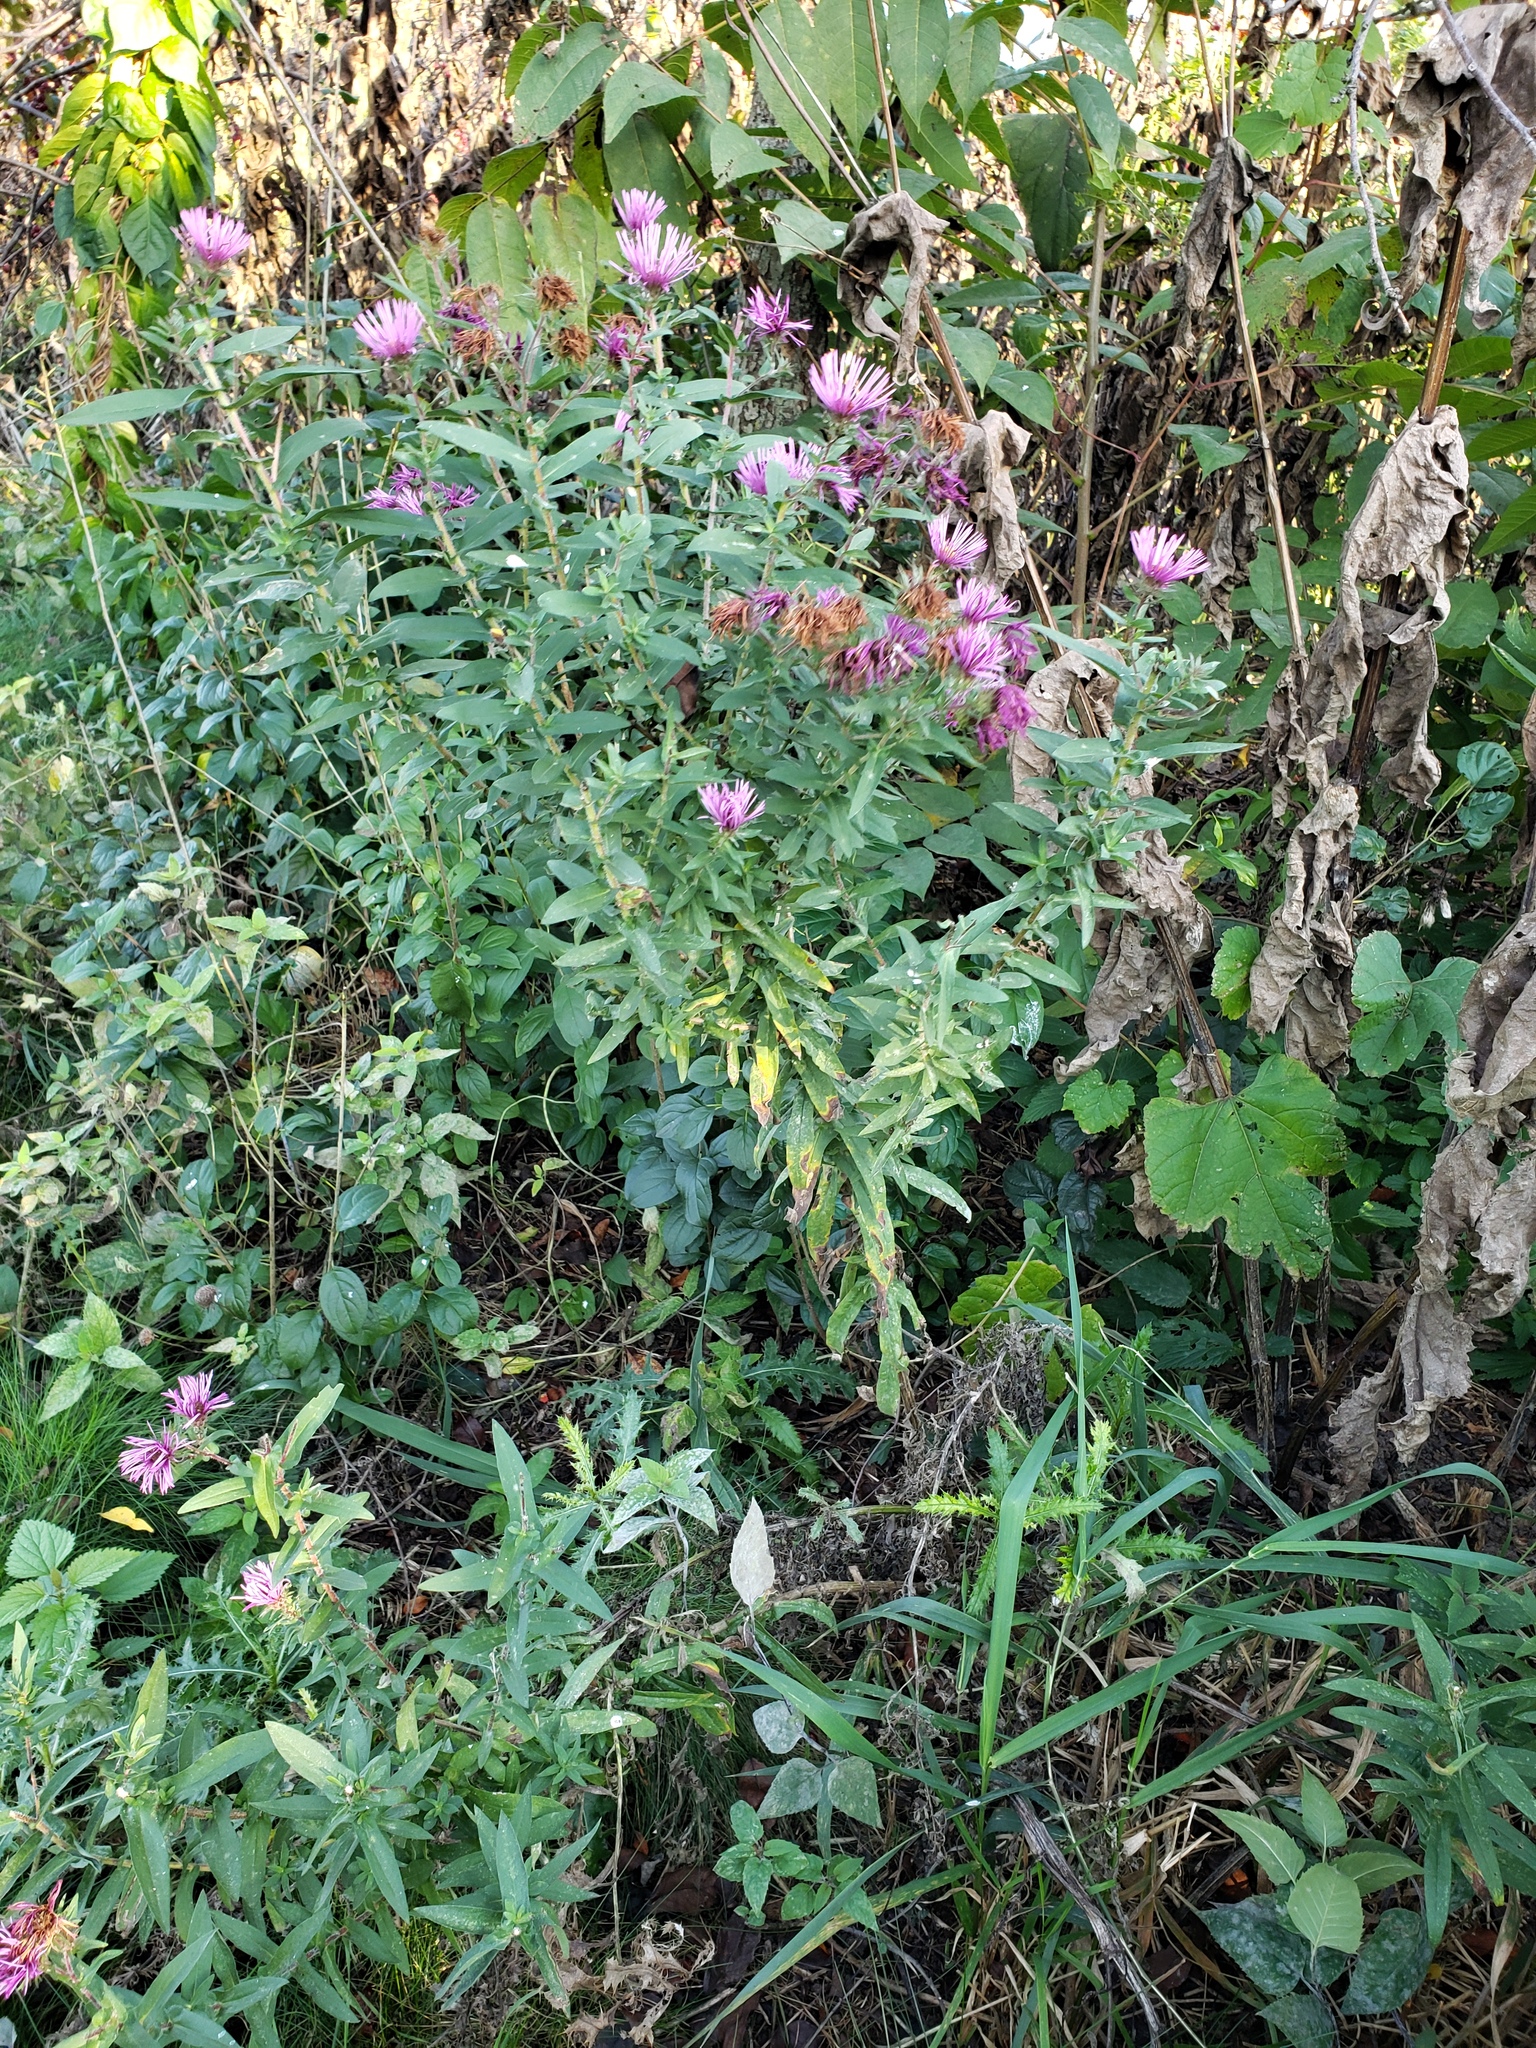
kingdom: Plantae
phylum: Tracheophyta
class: Magnoliopsida
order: Asterales
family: Asteraceae
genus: Symphyotrichum
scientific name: Symphyotrichum novae-angliae
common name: Michaelmas daisy
